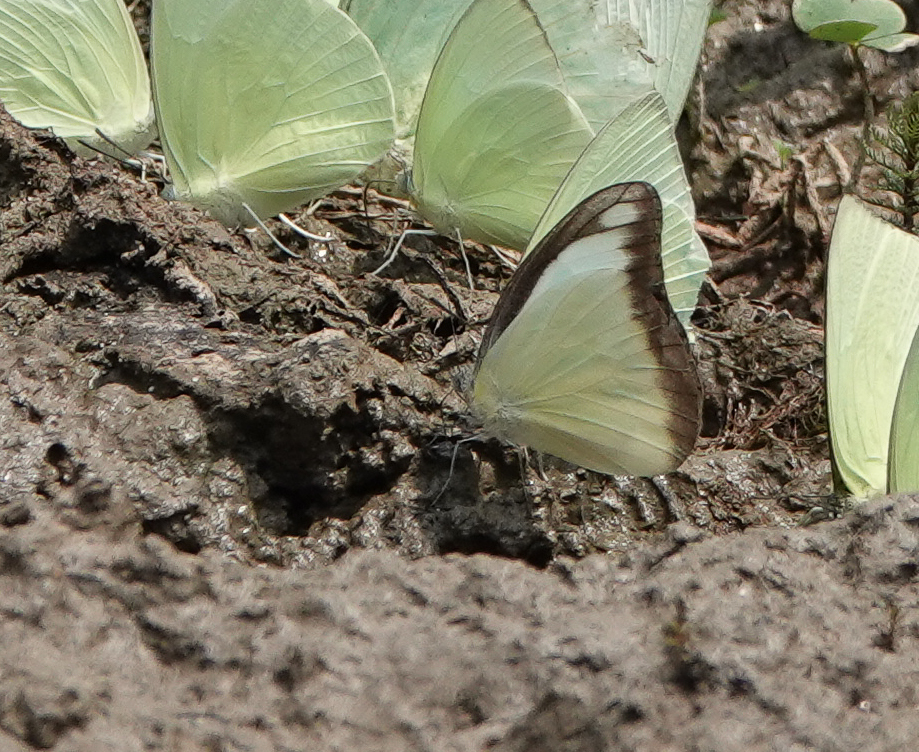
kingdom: Animalia
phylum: Arthropoda
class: Insecta
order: Lepidoptera
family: Pieridae
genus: Appias
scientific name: Appias lyncida
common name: Chocolate albatross
